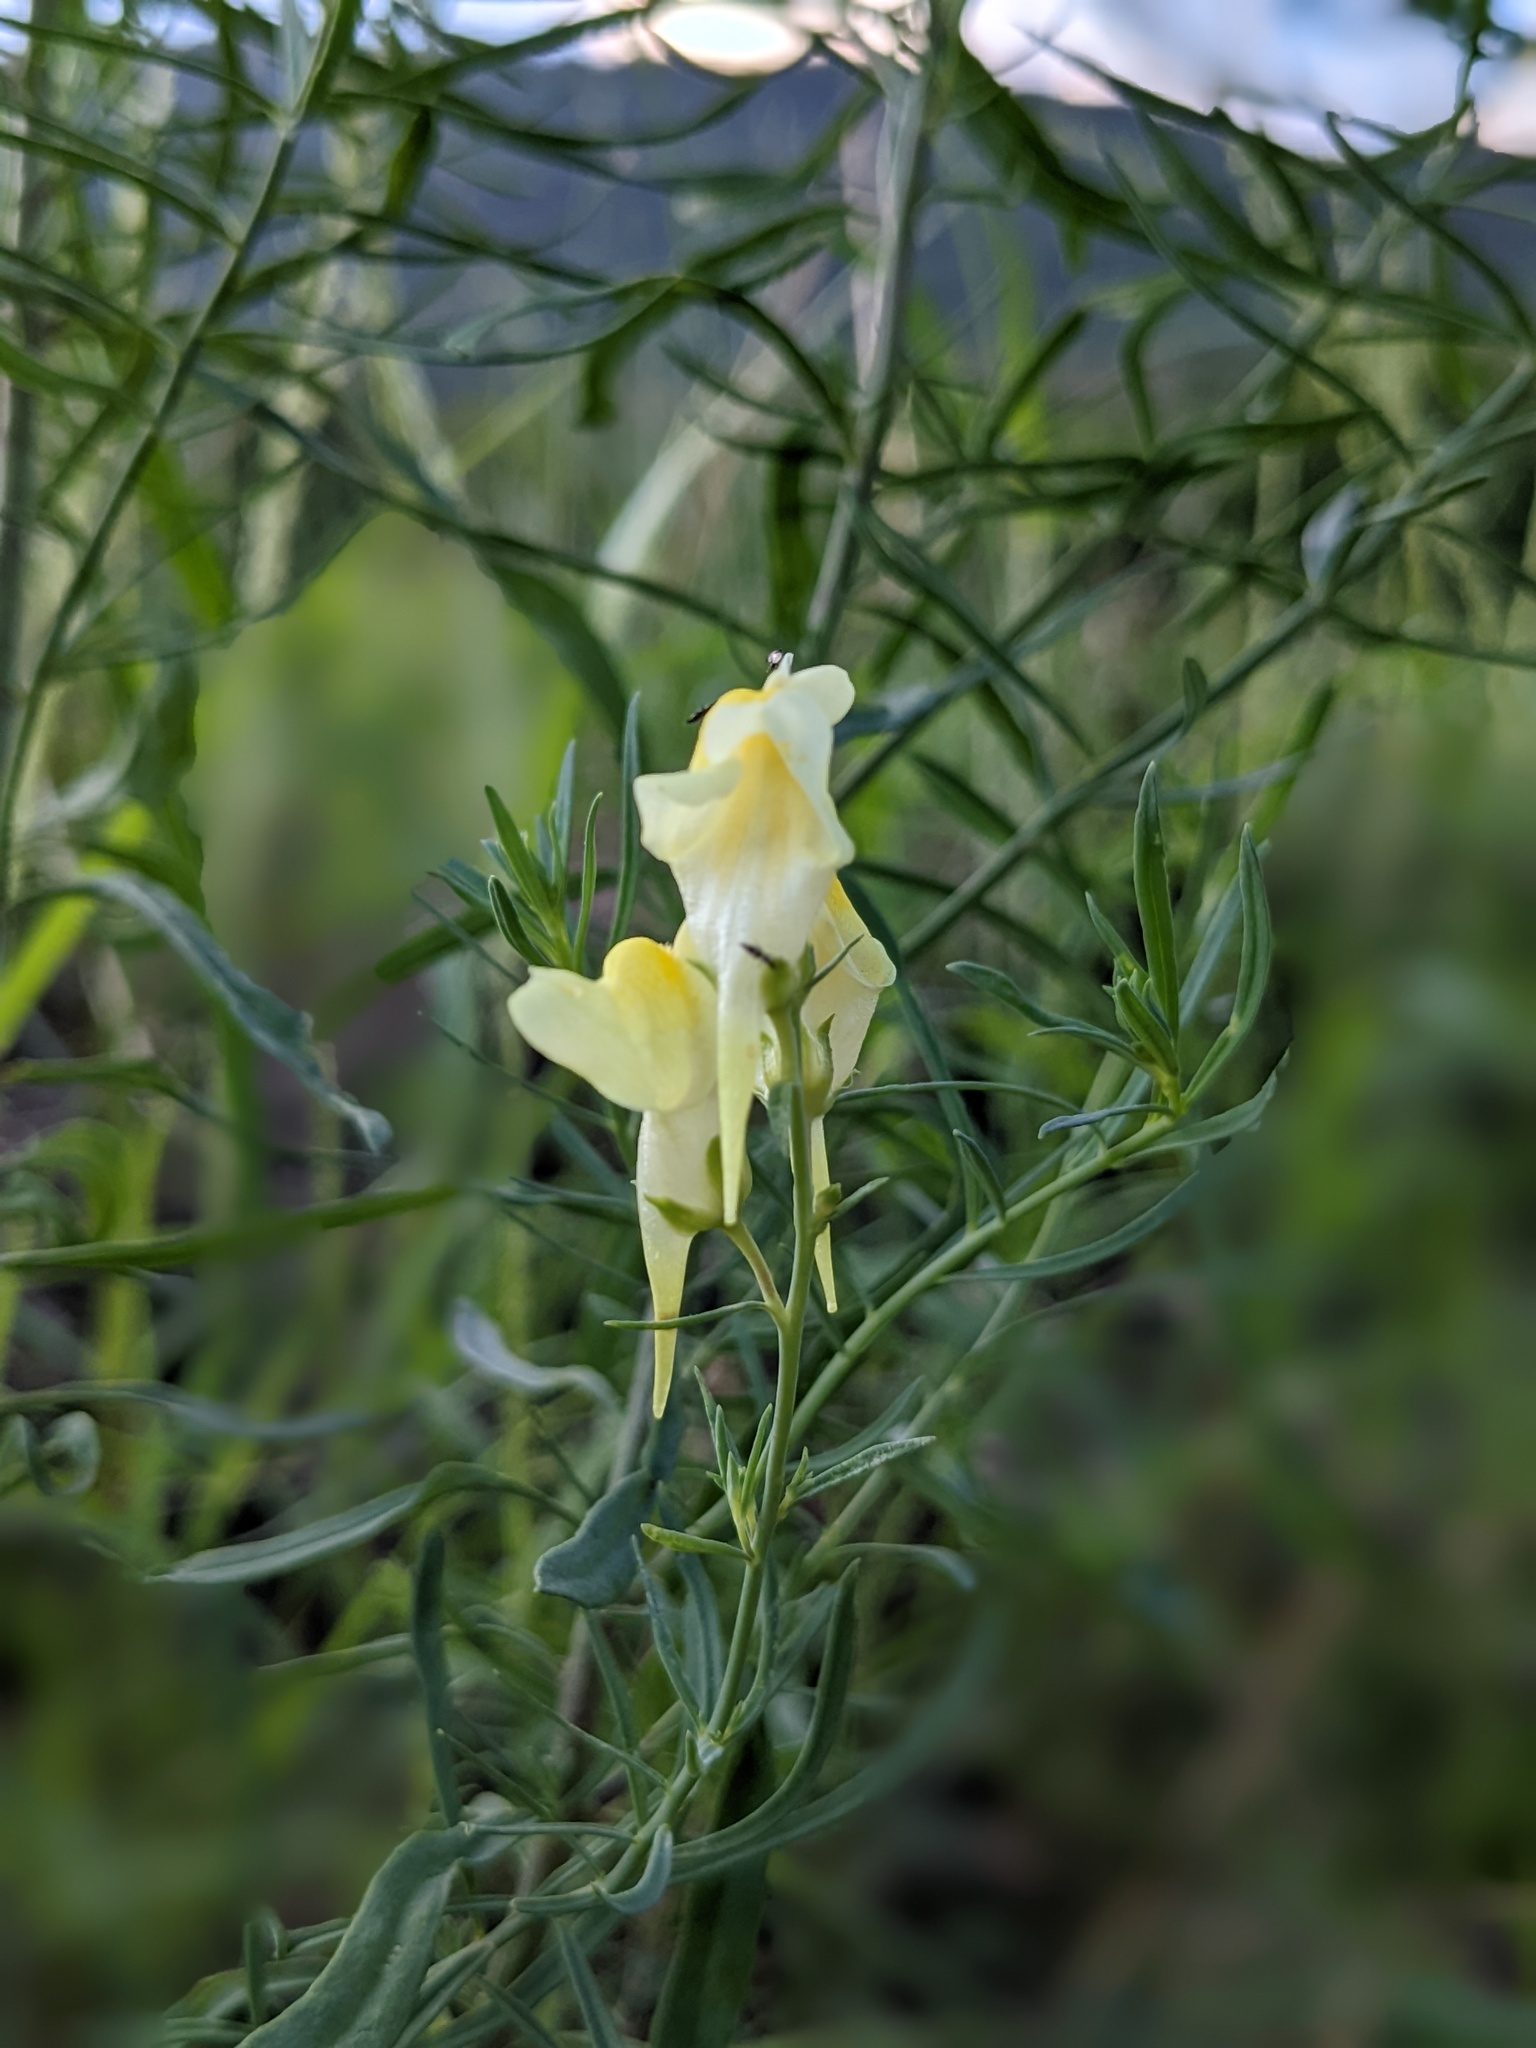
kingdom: Plantae
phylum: Tracheophyta
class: Magnoliopsida
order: Lamiales
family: Plantaginaceae
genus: Linaria
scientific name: Linaria vulgaris
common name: Butter and eggs
